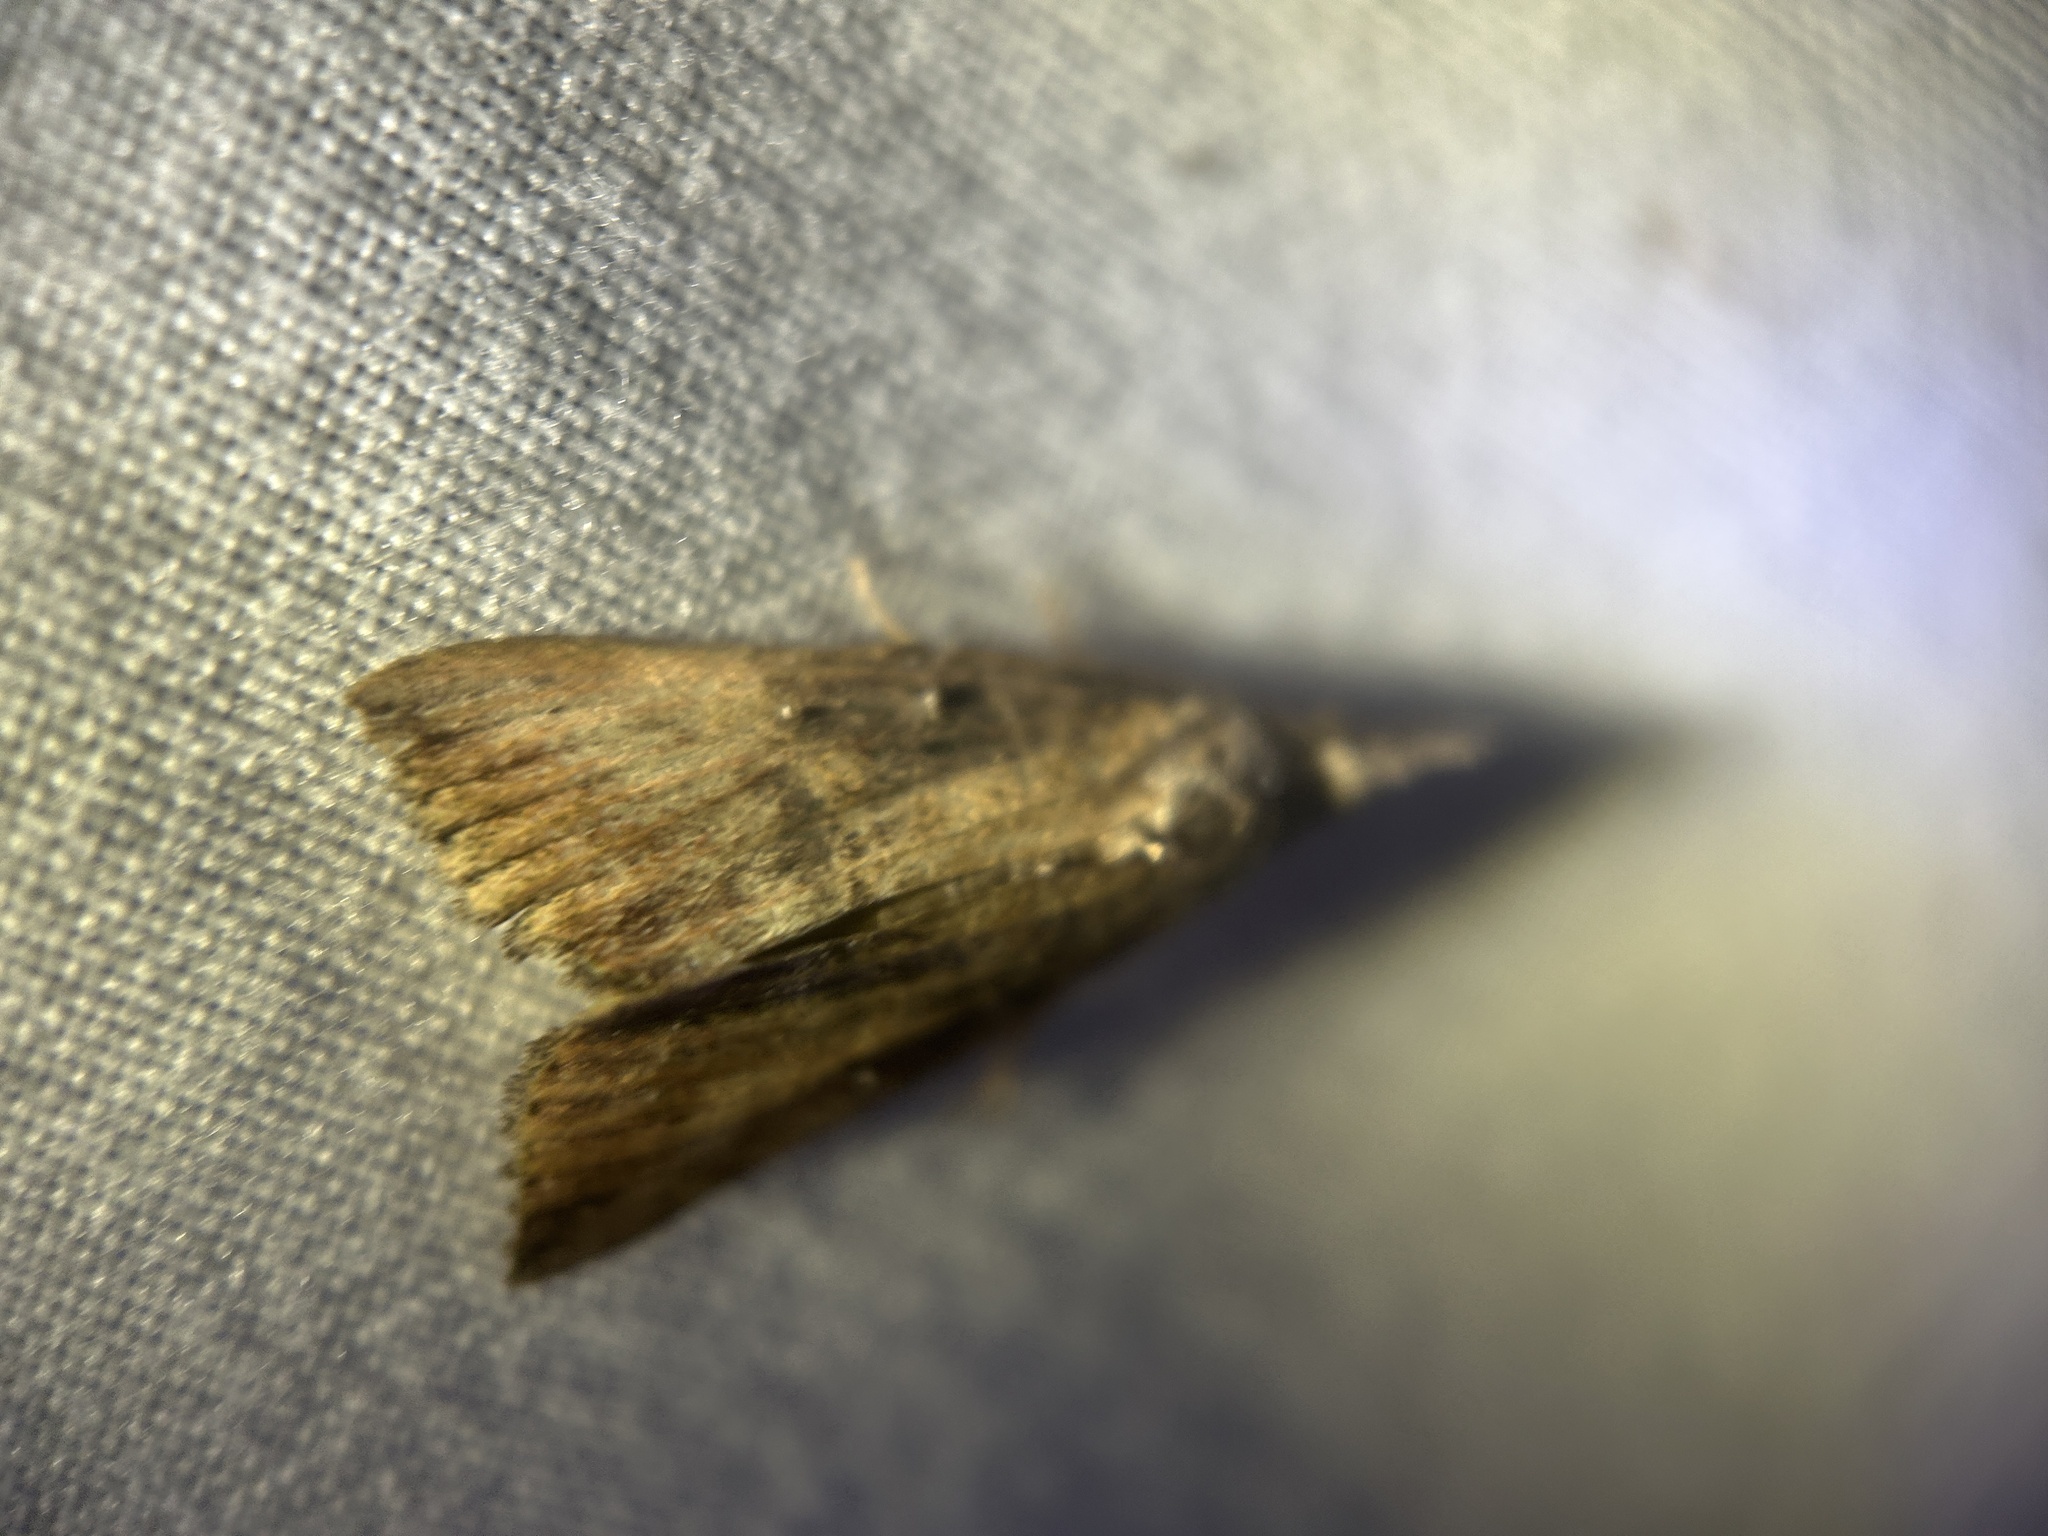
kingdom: Animalia
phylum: Arthropoda
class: Insecta
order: Lepidoptera
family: Erebidae
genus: Hypena
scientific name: Hypena scabra
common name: Green cloverworm
